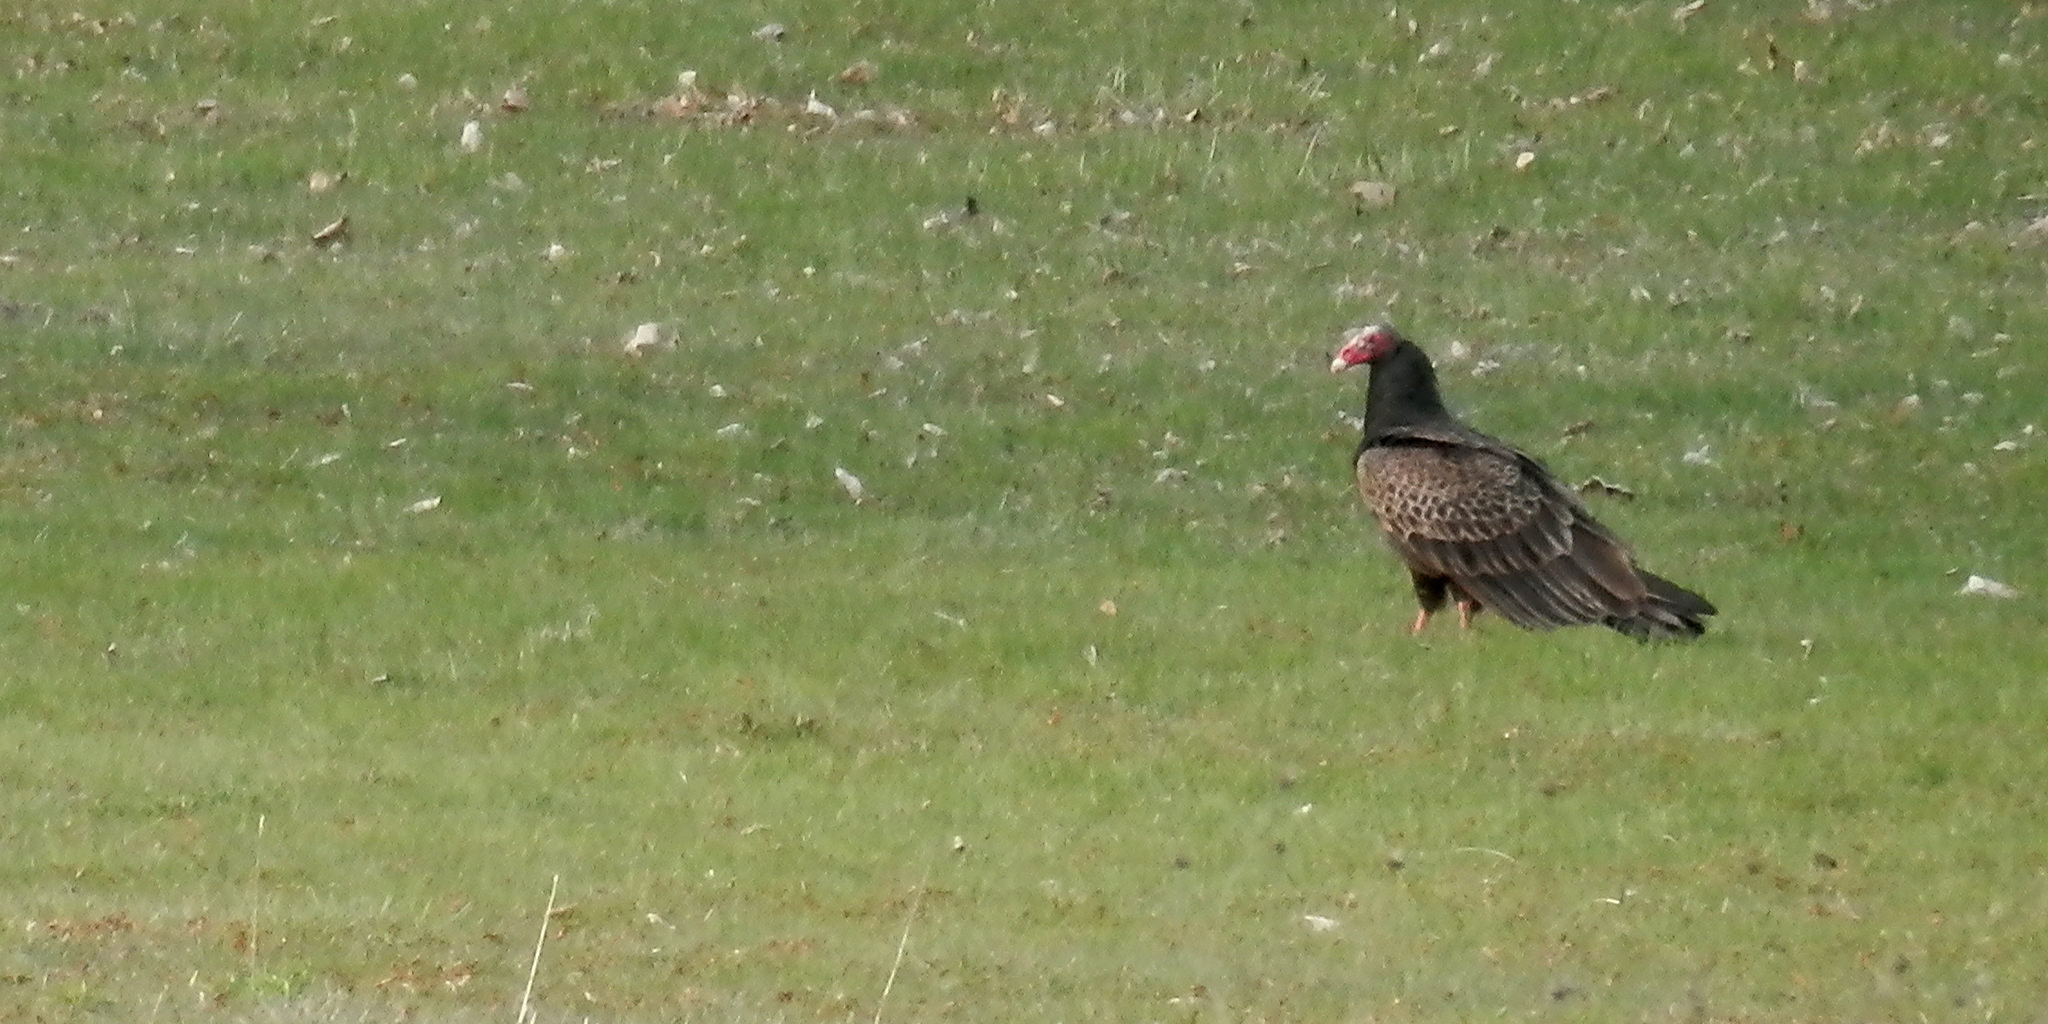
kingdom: Animalia
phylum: Chordata
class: Aves
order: Accipitriformes
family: Cathartidae
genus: Cathartes
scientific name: Cathartes aura
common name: Turkey vulture
